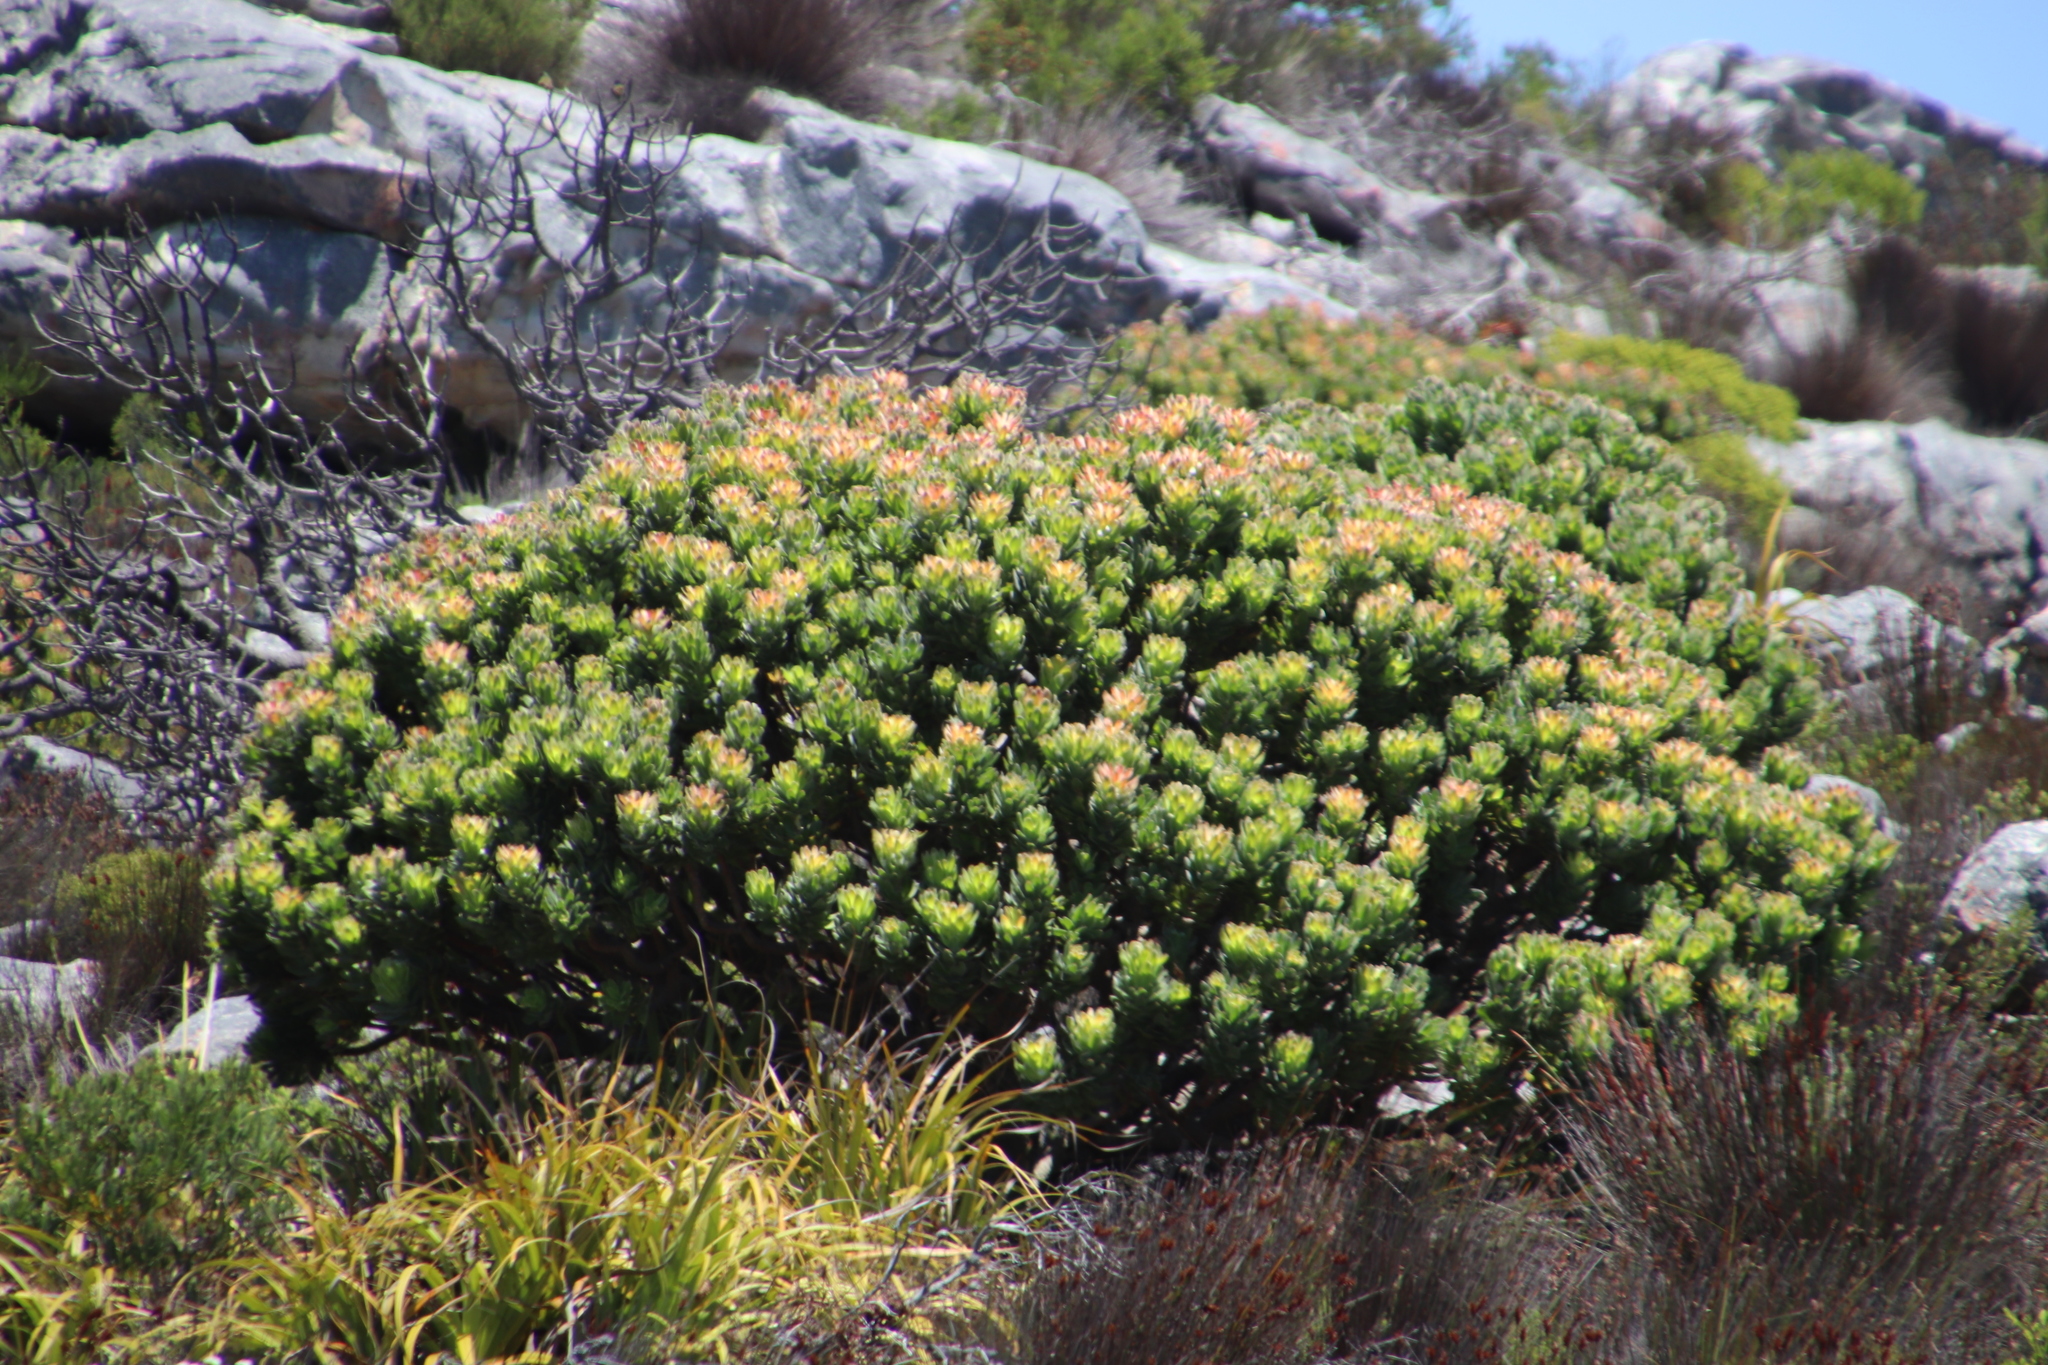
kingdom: Plantae
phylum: Tracheophyta
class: Magnoliopsida
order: Proteales
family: Proteaceae
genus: Mimetes
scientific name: Mimetes fimbriifolius
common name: Fringed bottlebrush
